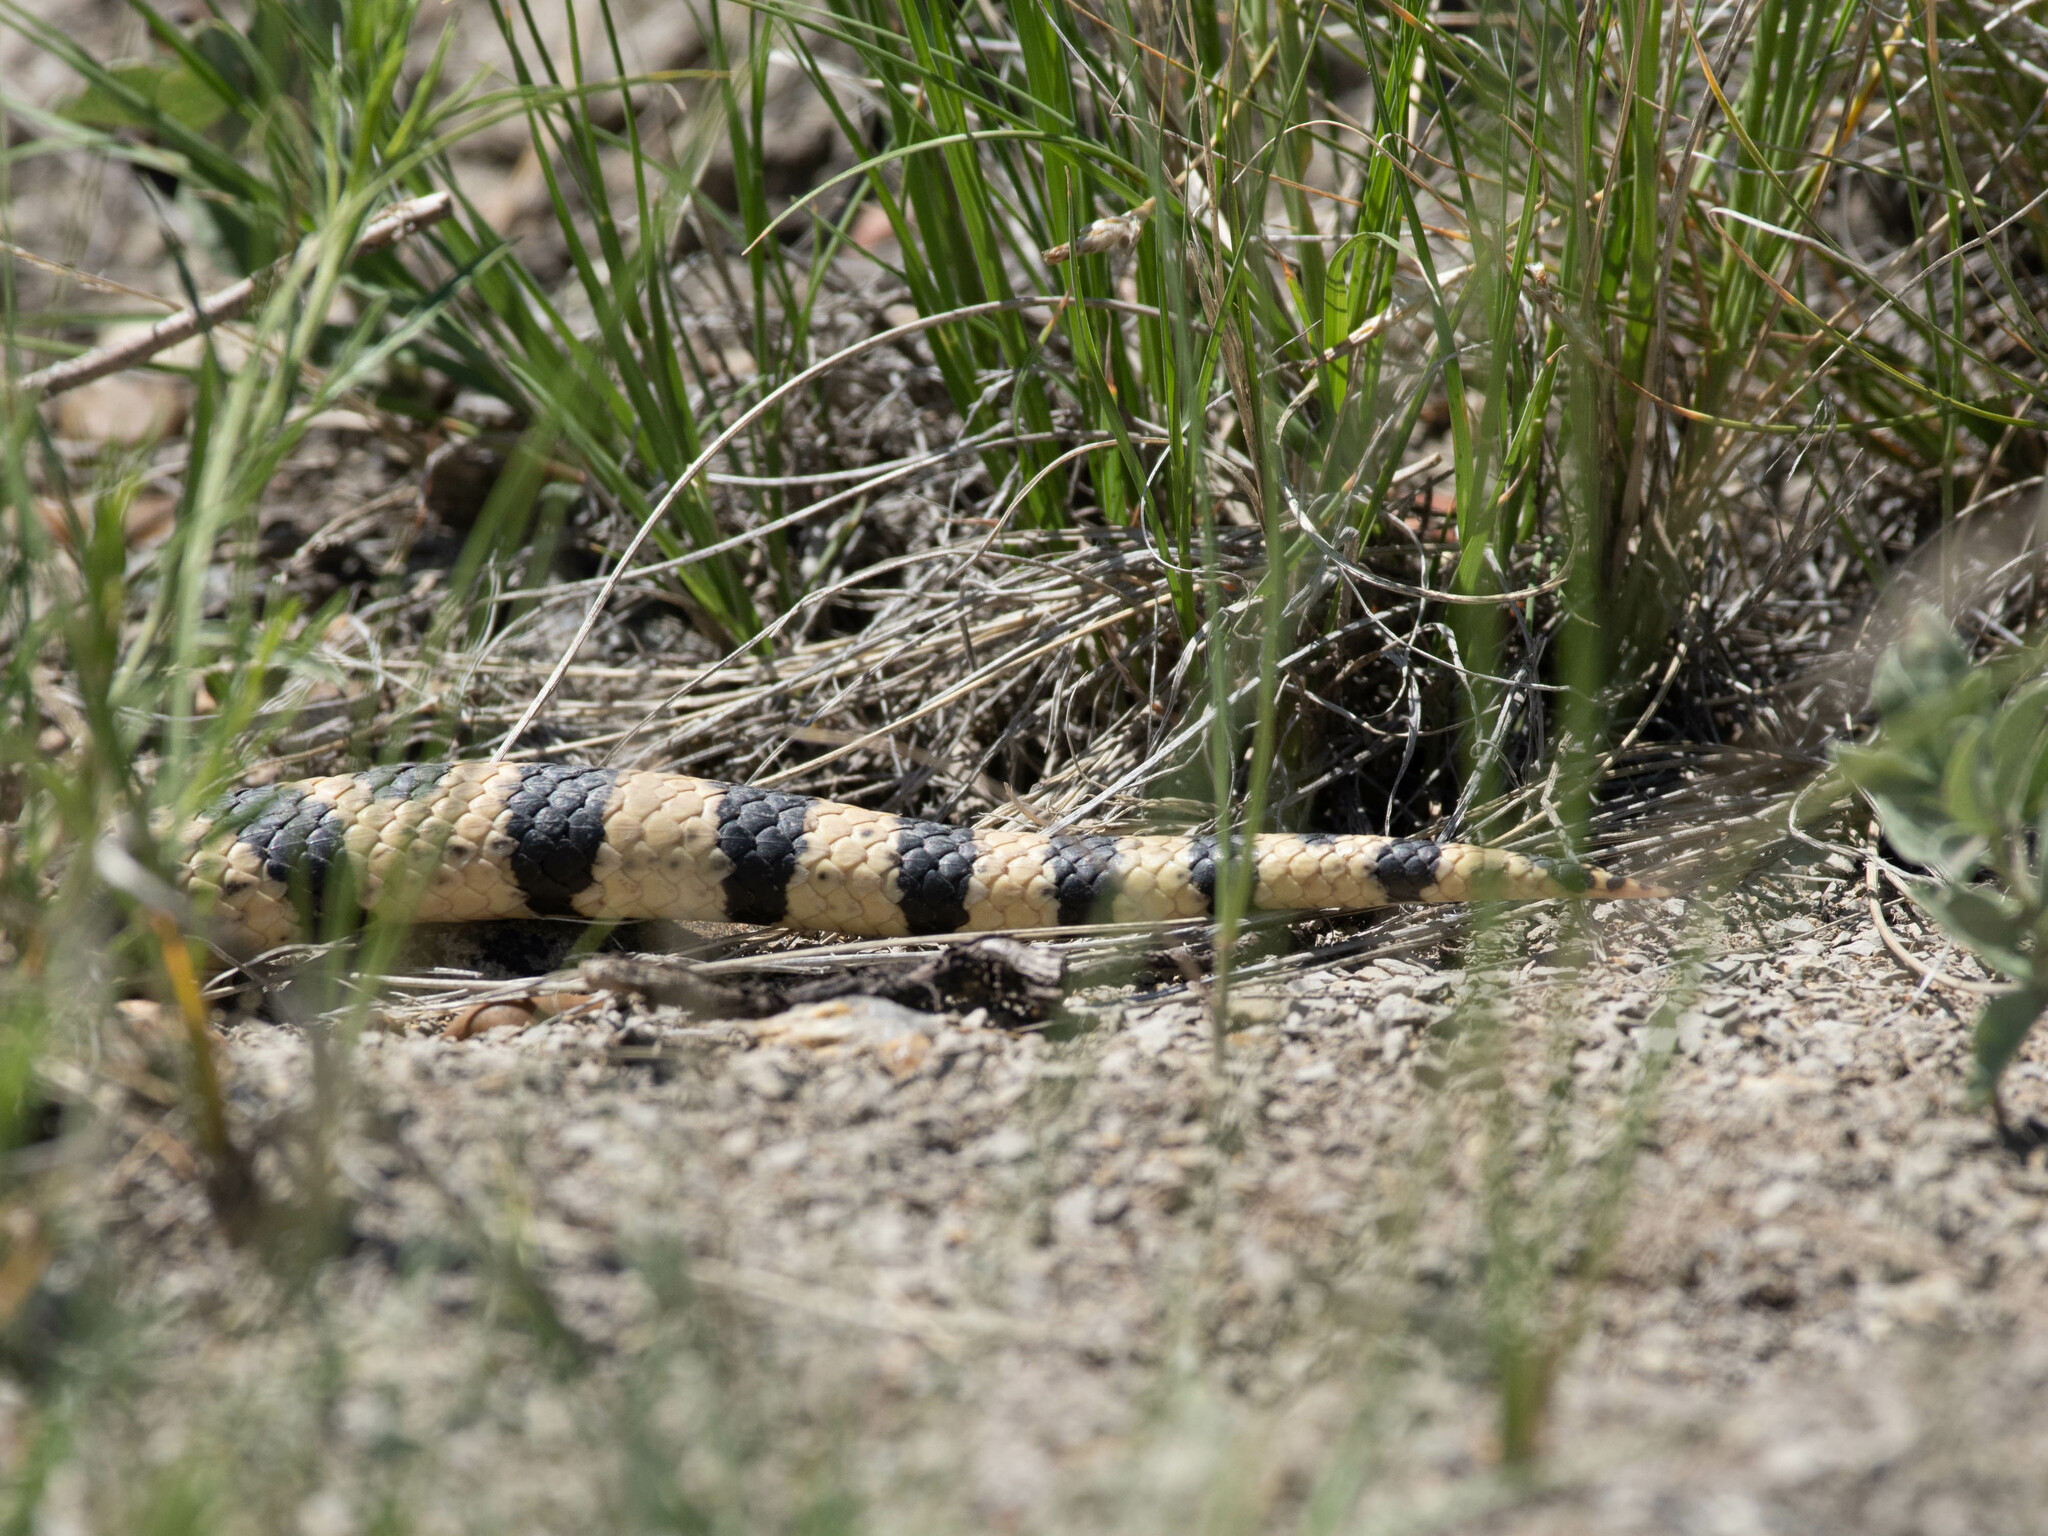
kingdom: Animalia
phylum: Chordata
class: Squamata
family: Colubridae
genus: Pituophis
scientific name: Pituophis catenifer
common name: Gopher snake
